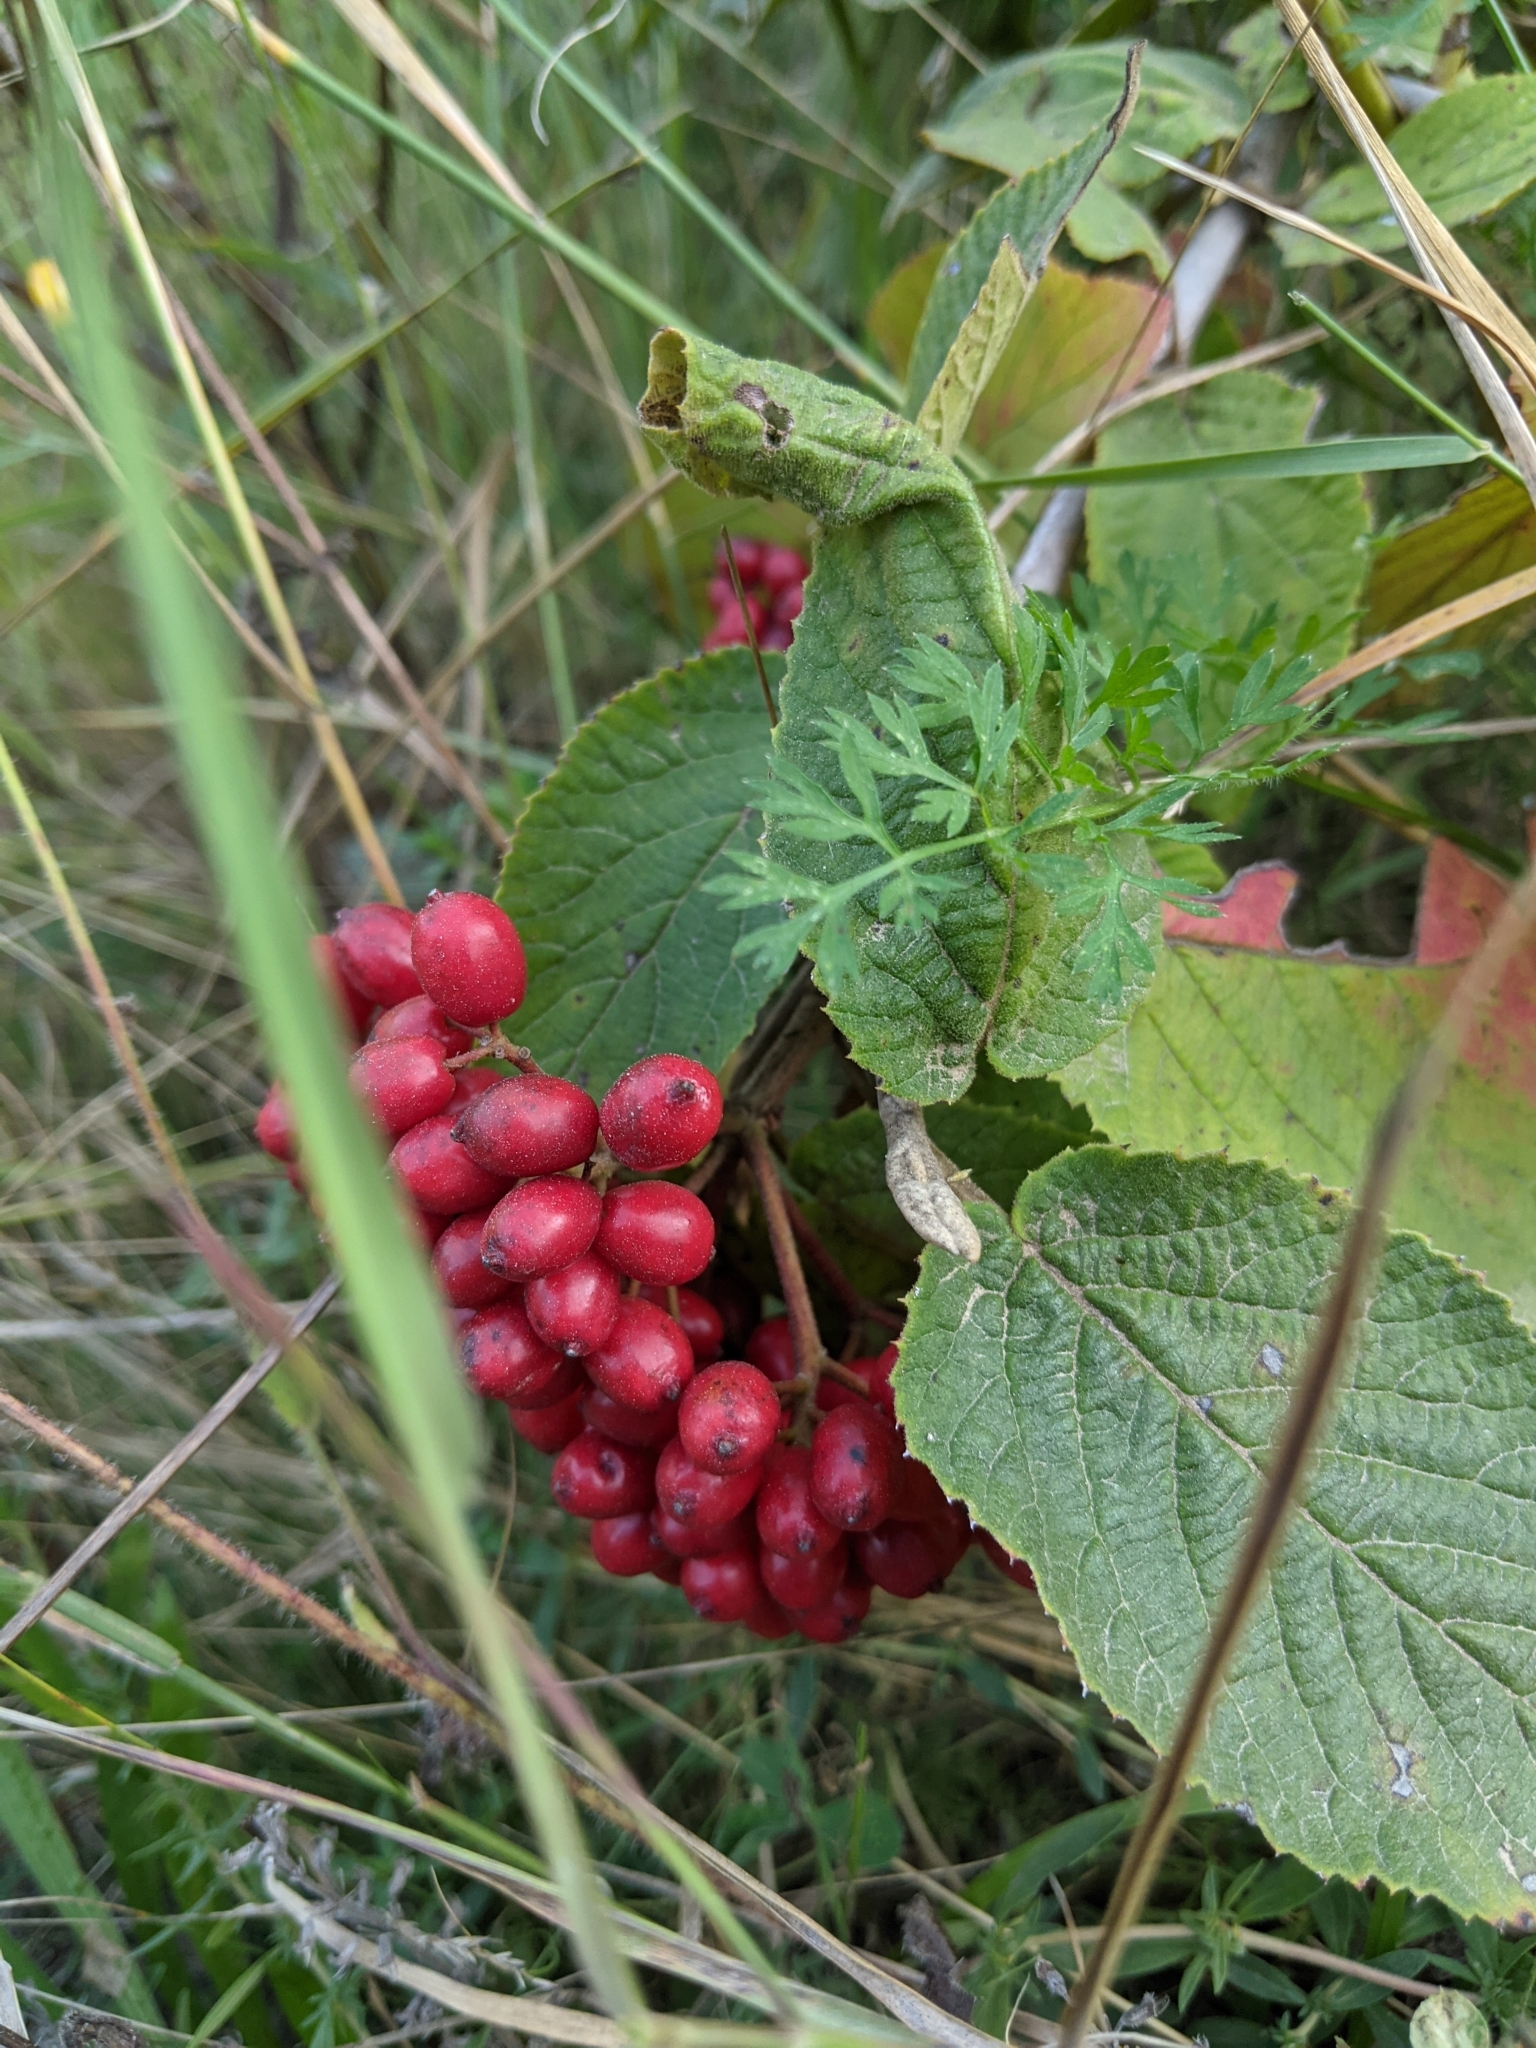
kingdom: Plantae
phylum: Tracheophyta
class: Magnoliopsida
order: Dipsacales
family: Viburnaceae
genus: Viburnum
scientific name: Viburnum lantana
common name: Wayfaring tree
